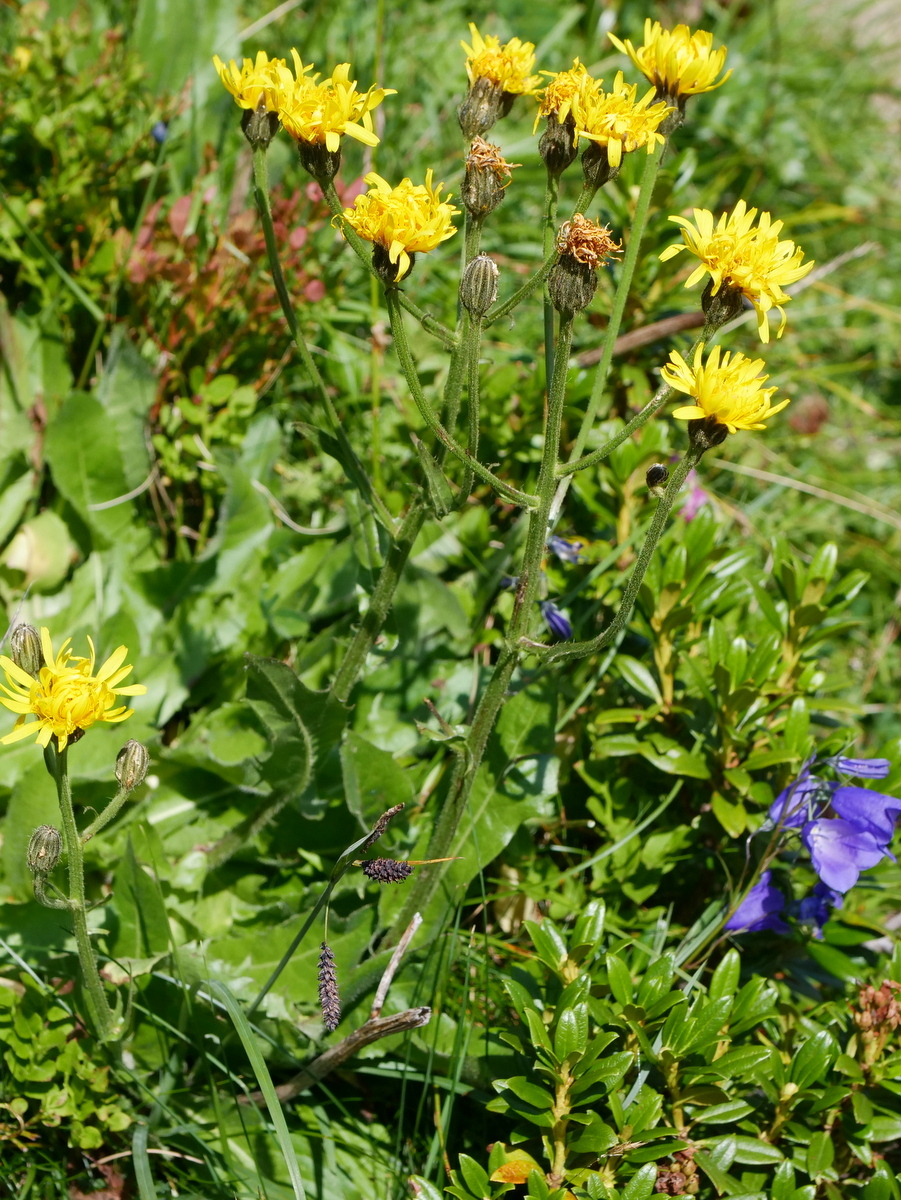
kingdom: Plantae
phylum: Tracheophyta
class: Magnoliopsida
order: Asterales
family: Asteraceae
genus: Crepis
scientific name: Crepis conyzifolia
